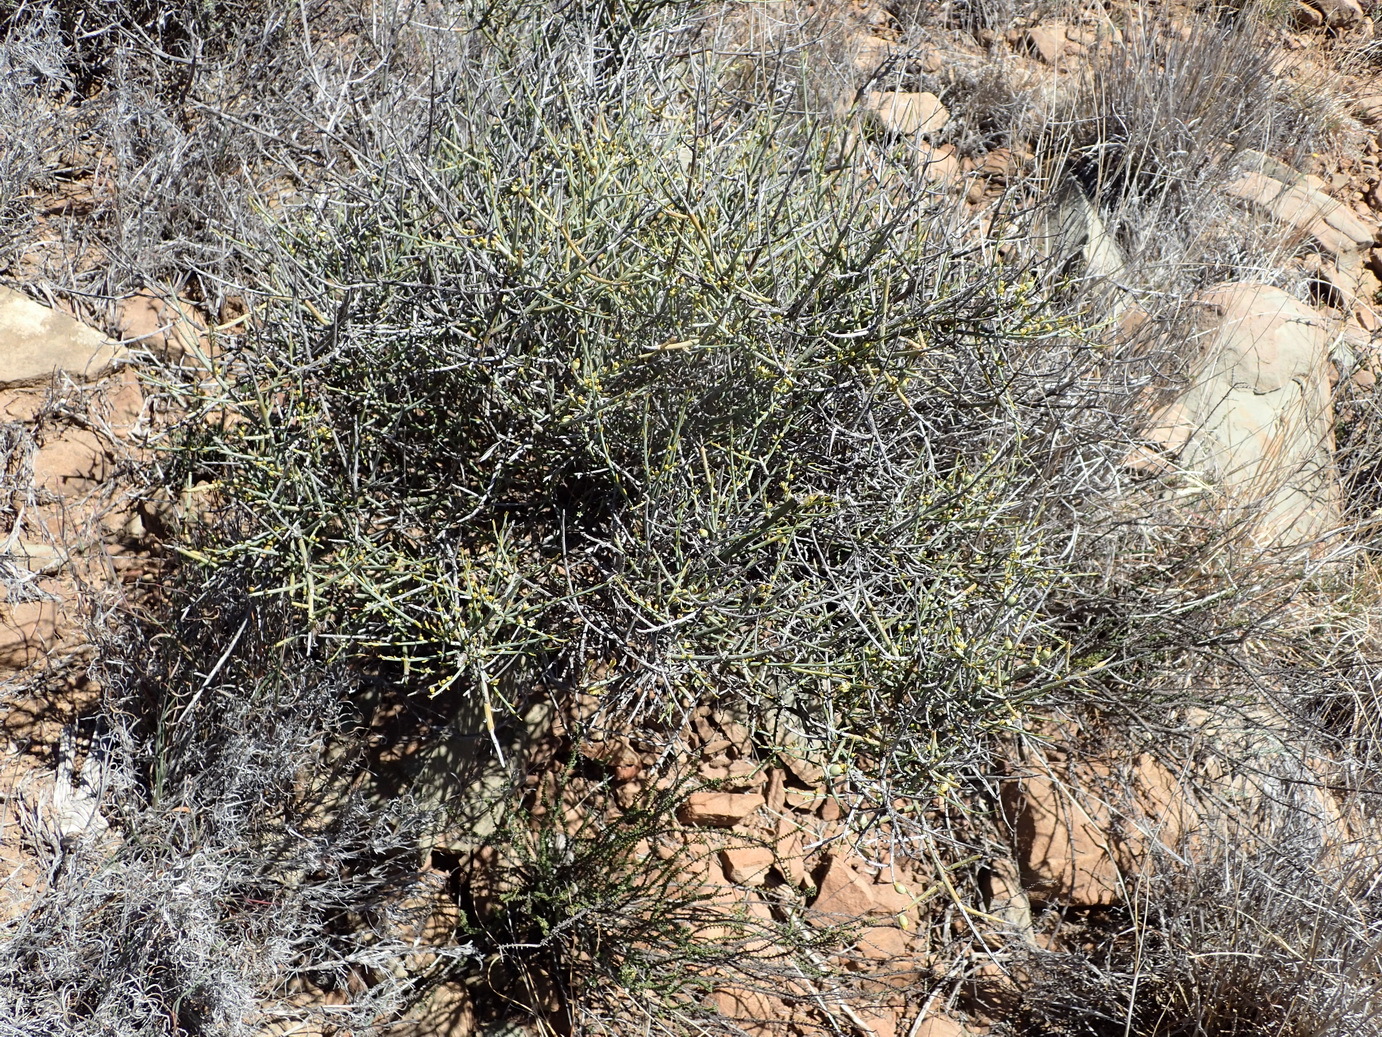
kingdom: Plantae
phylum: Tracheophyta
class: Magnoliopsida
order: Santalales
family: Thesiaceae
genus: Lacomucinaea
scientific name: Lacomucinaea lineata
